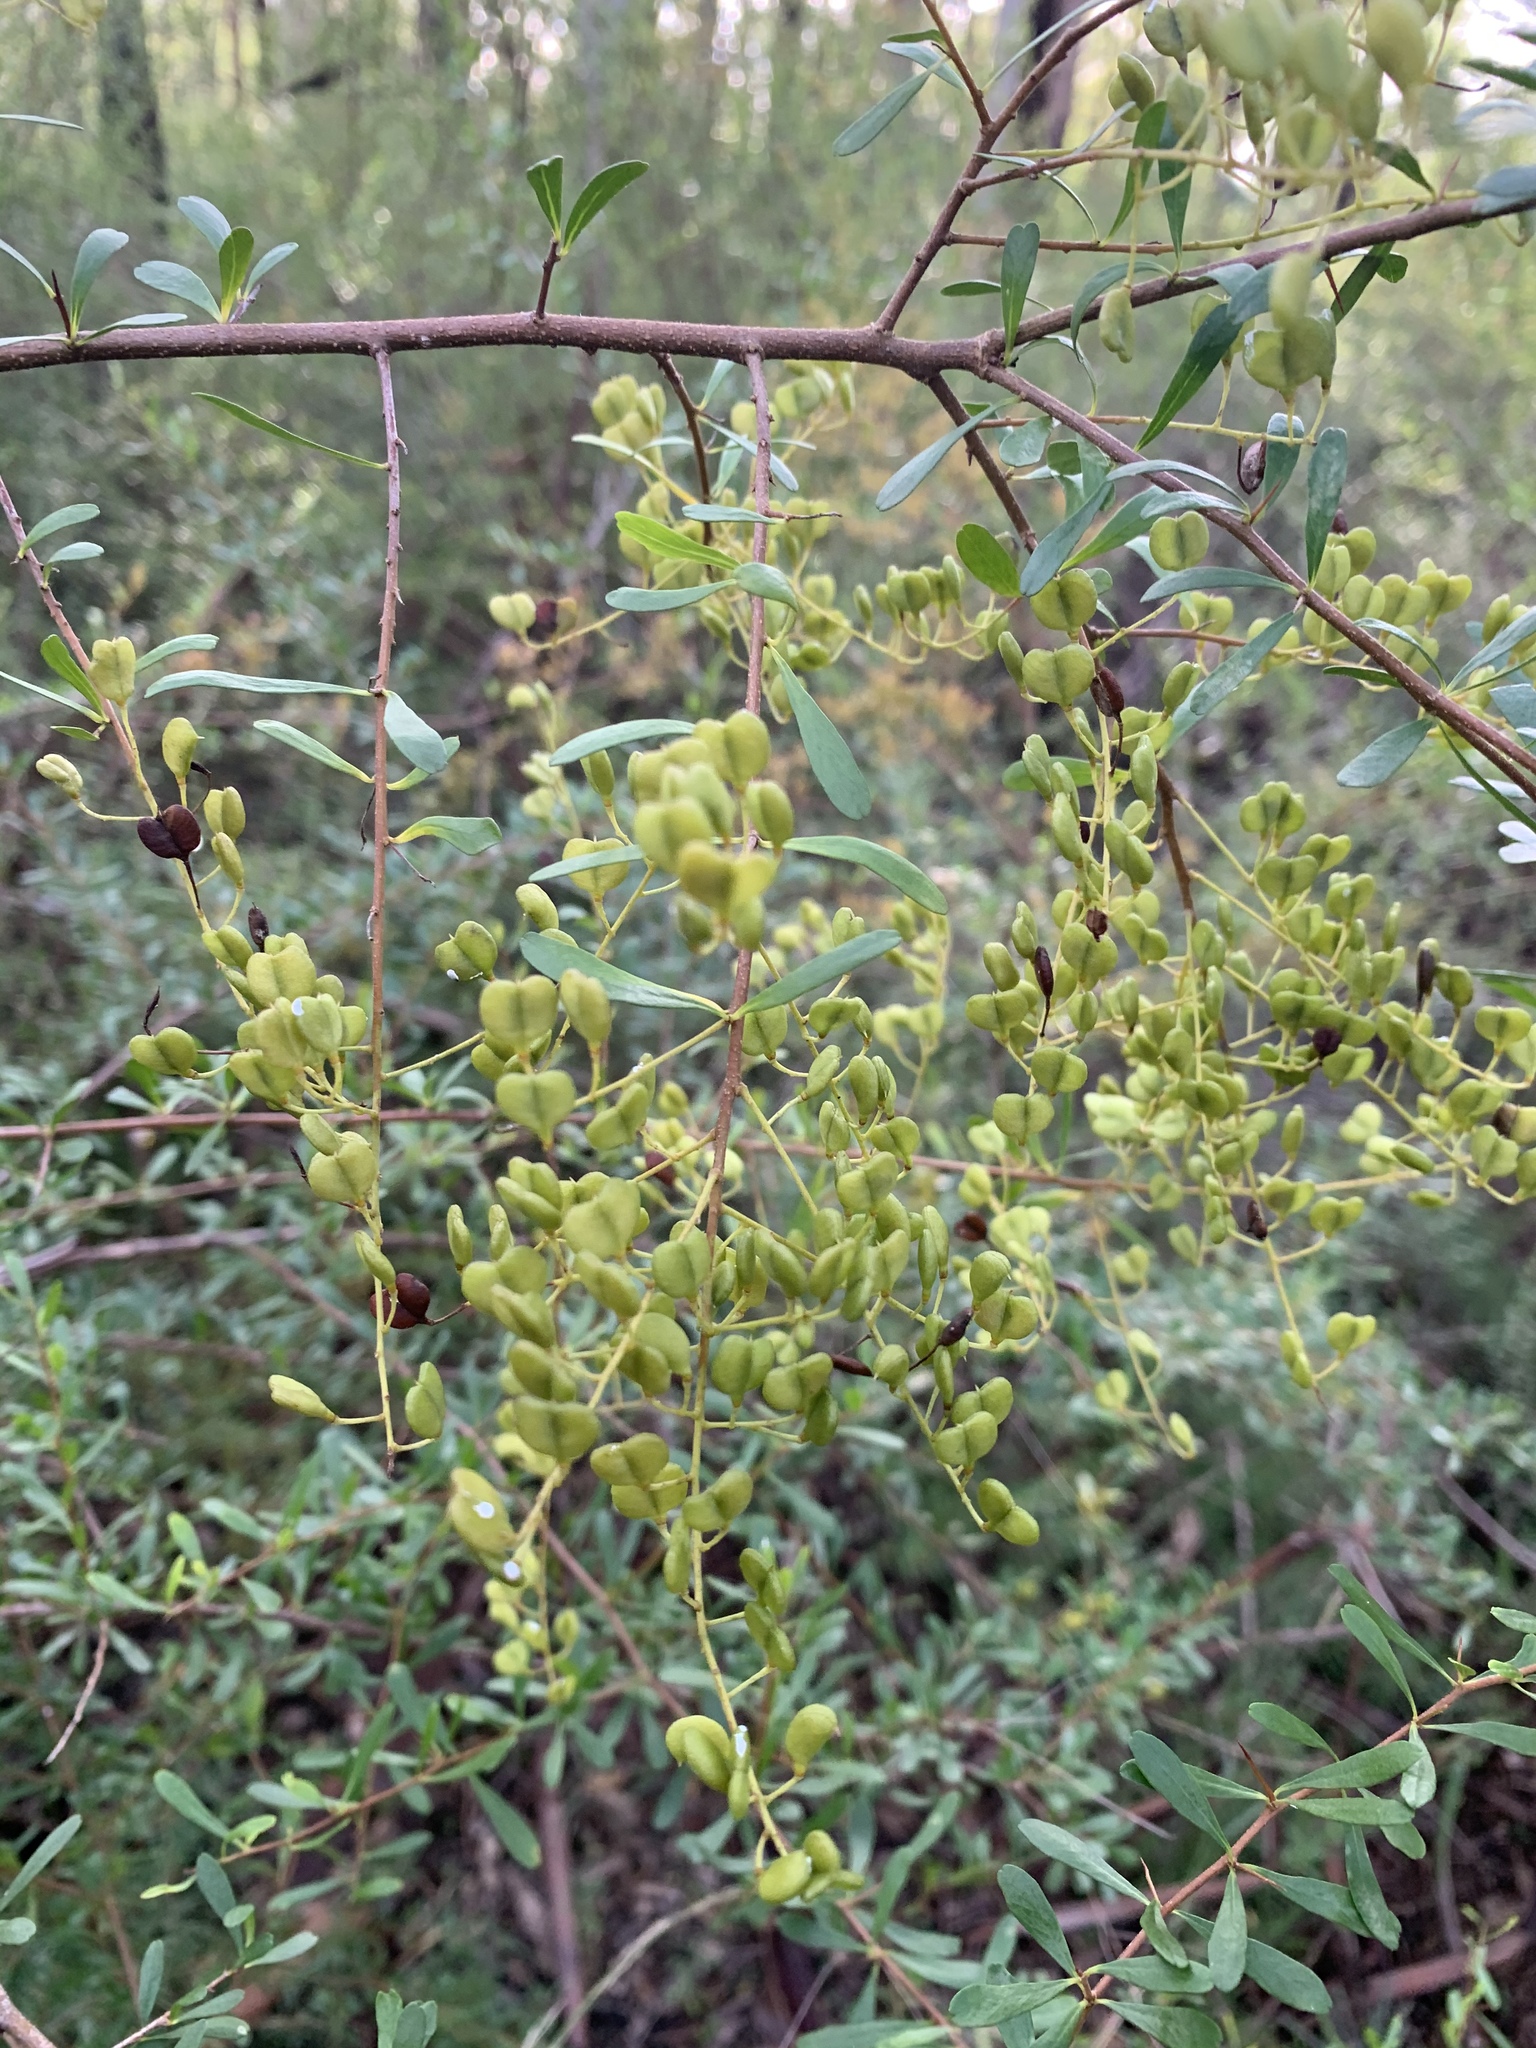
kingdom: Plantae
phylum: Tracheophyta
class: Magnoliopsida
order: Apiales
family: Pittosporaceae
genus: Bursaria
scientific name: Bursaria spinosa
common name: Australian blackthorn
